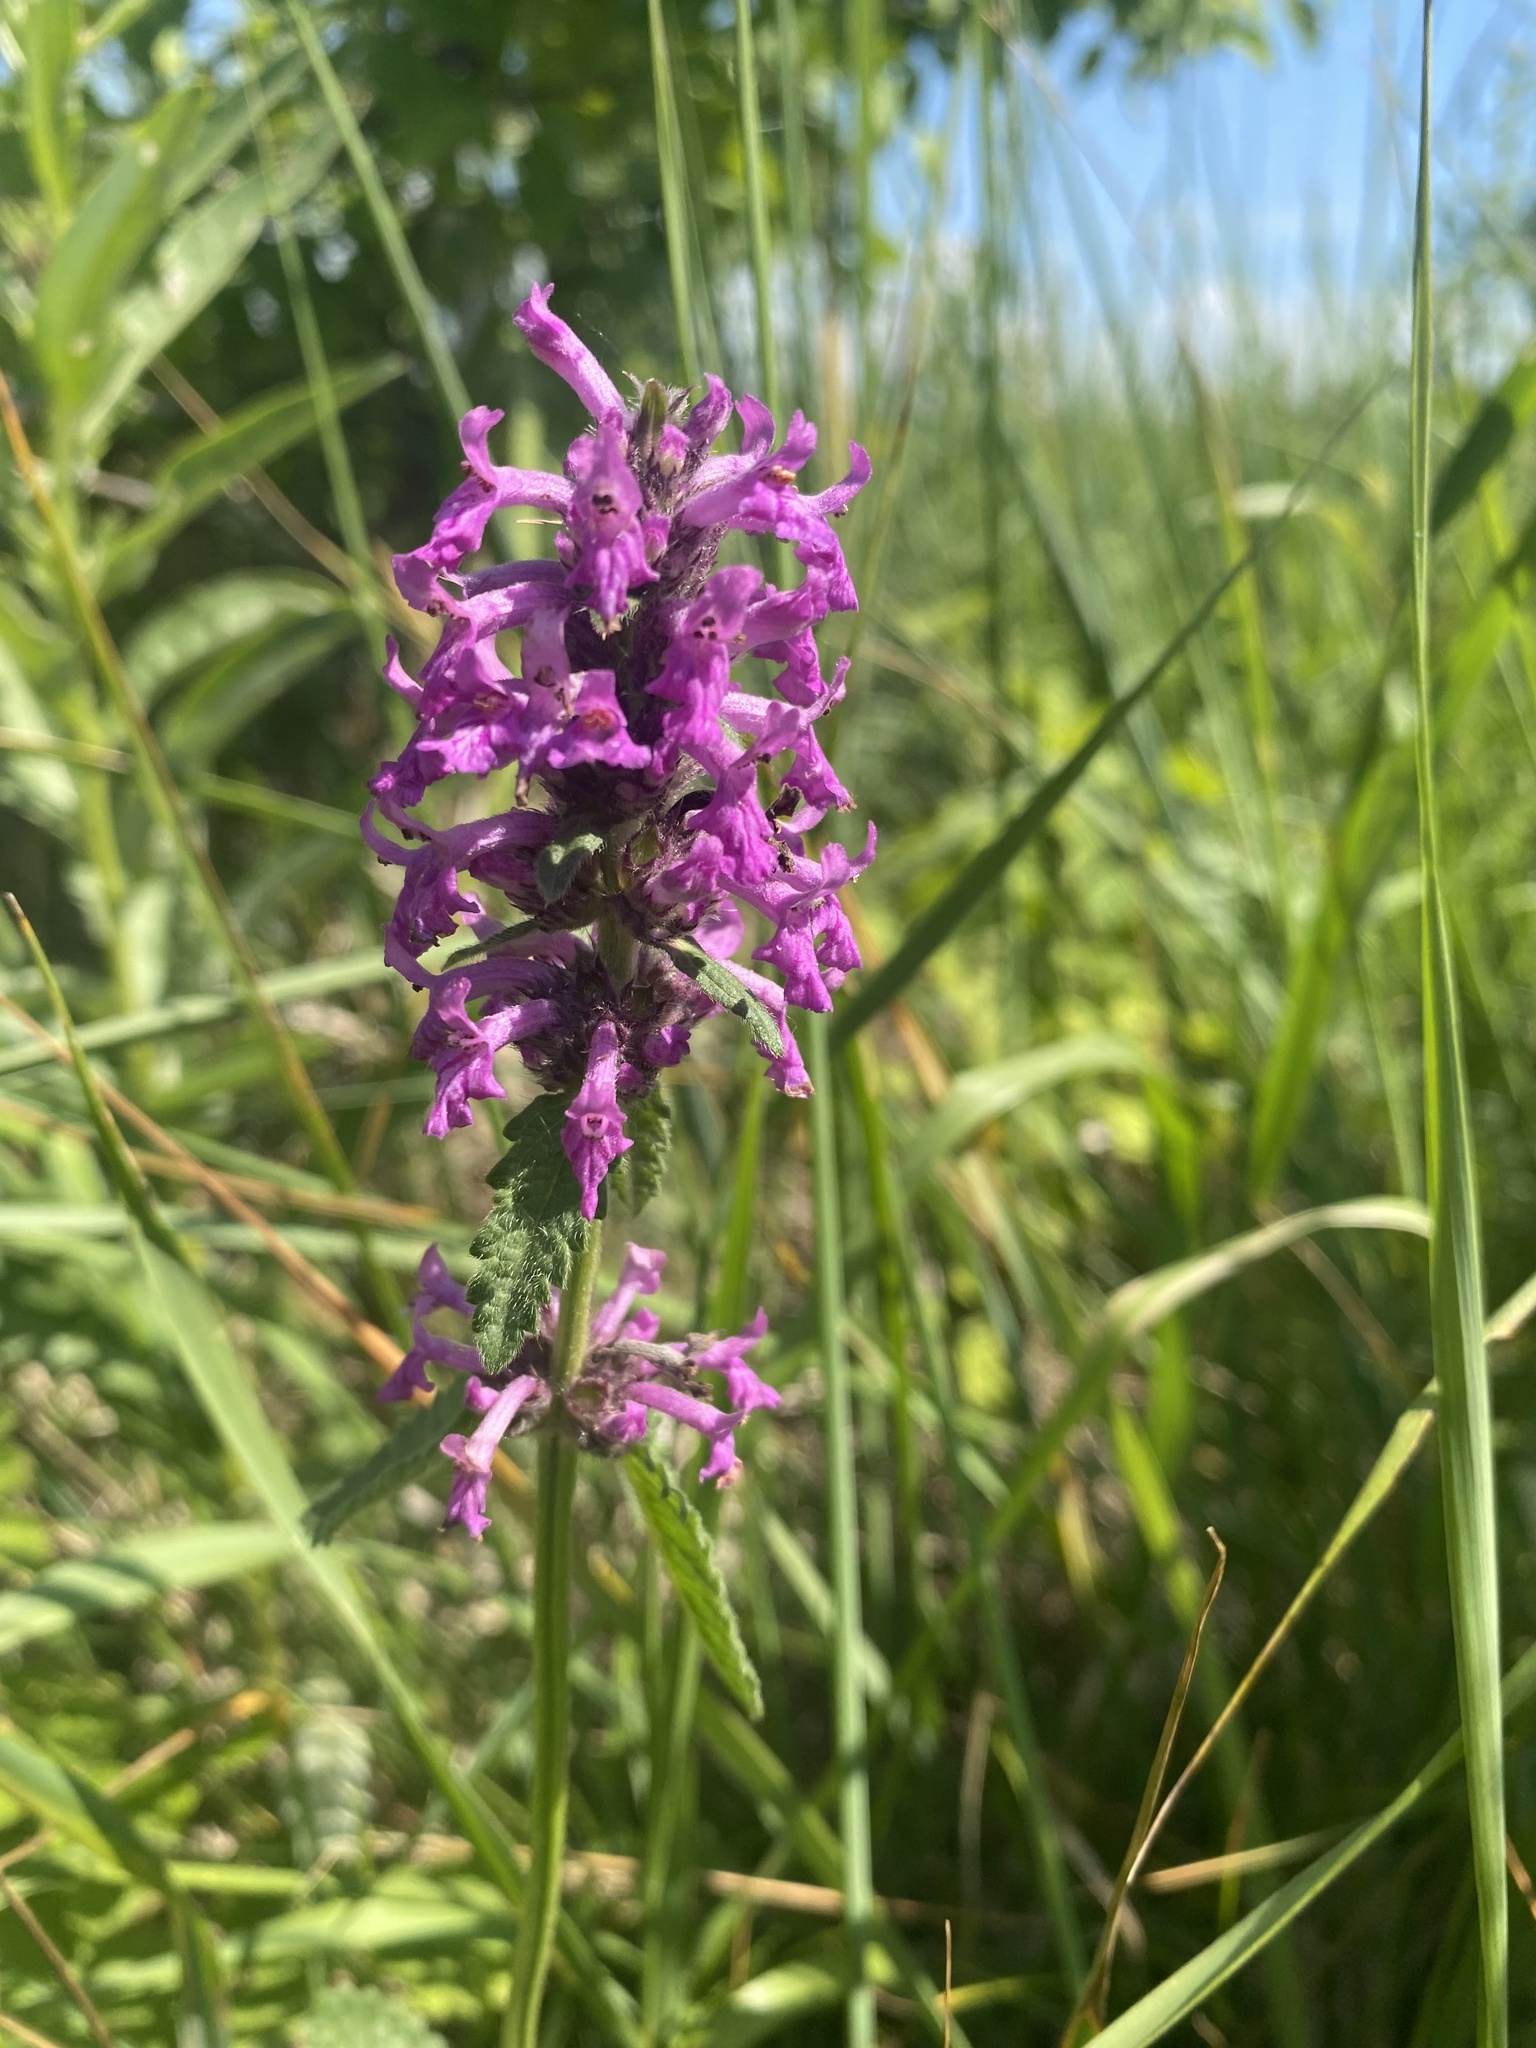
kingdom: Plantae
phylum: Tracheophyta
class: Magnoliopsida
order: Lamiales
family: Lamiaceae
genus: Betonica
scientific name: Betonica officinalis
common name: Bishop's-wort
